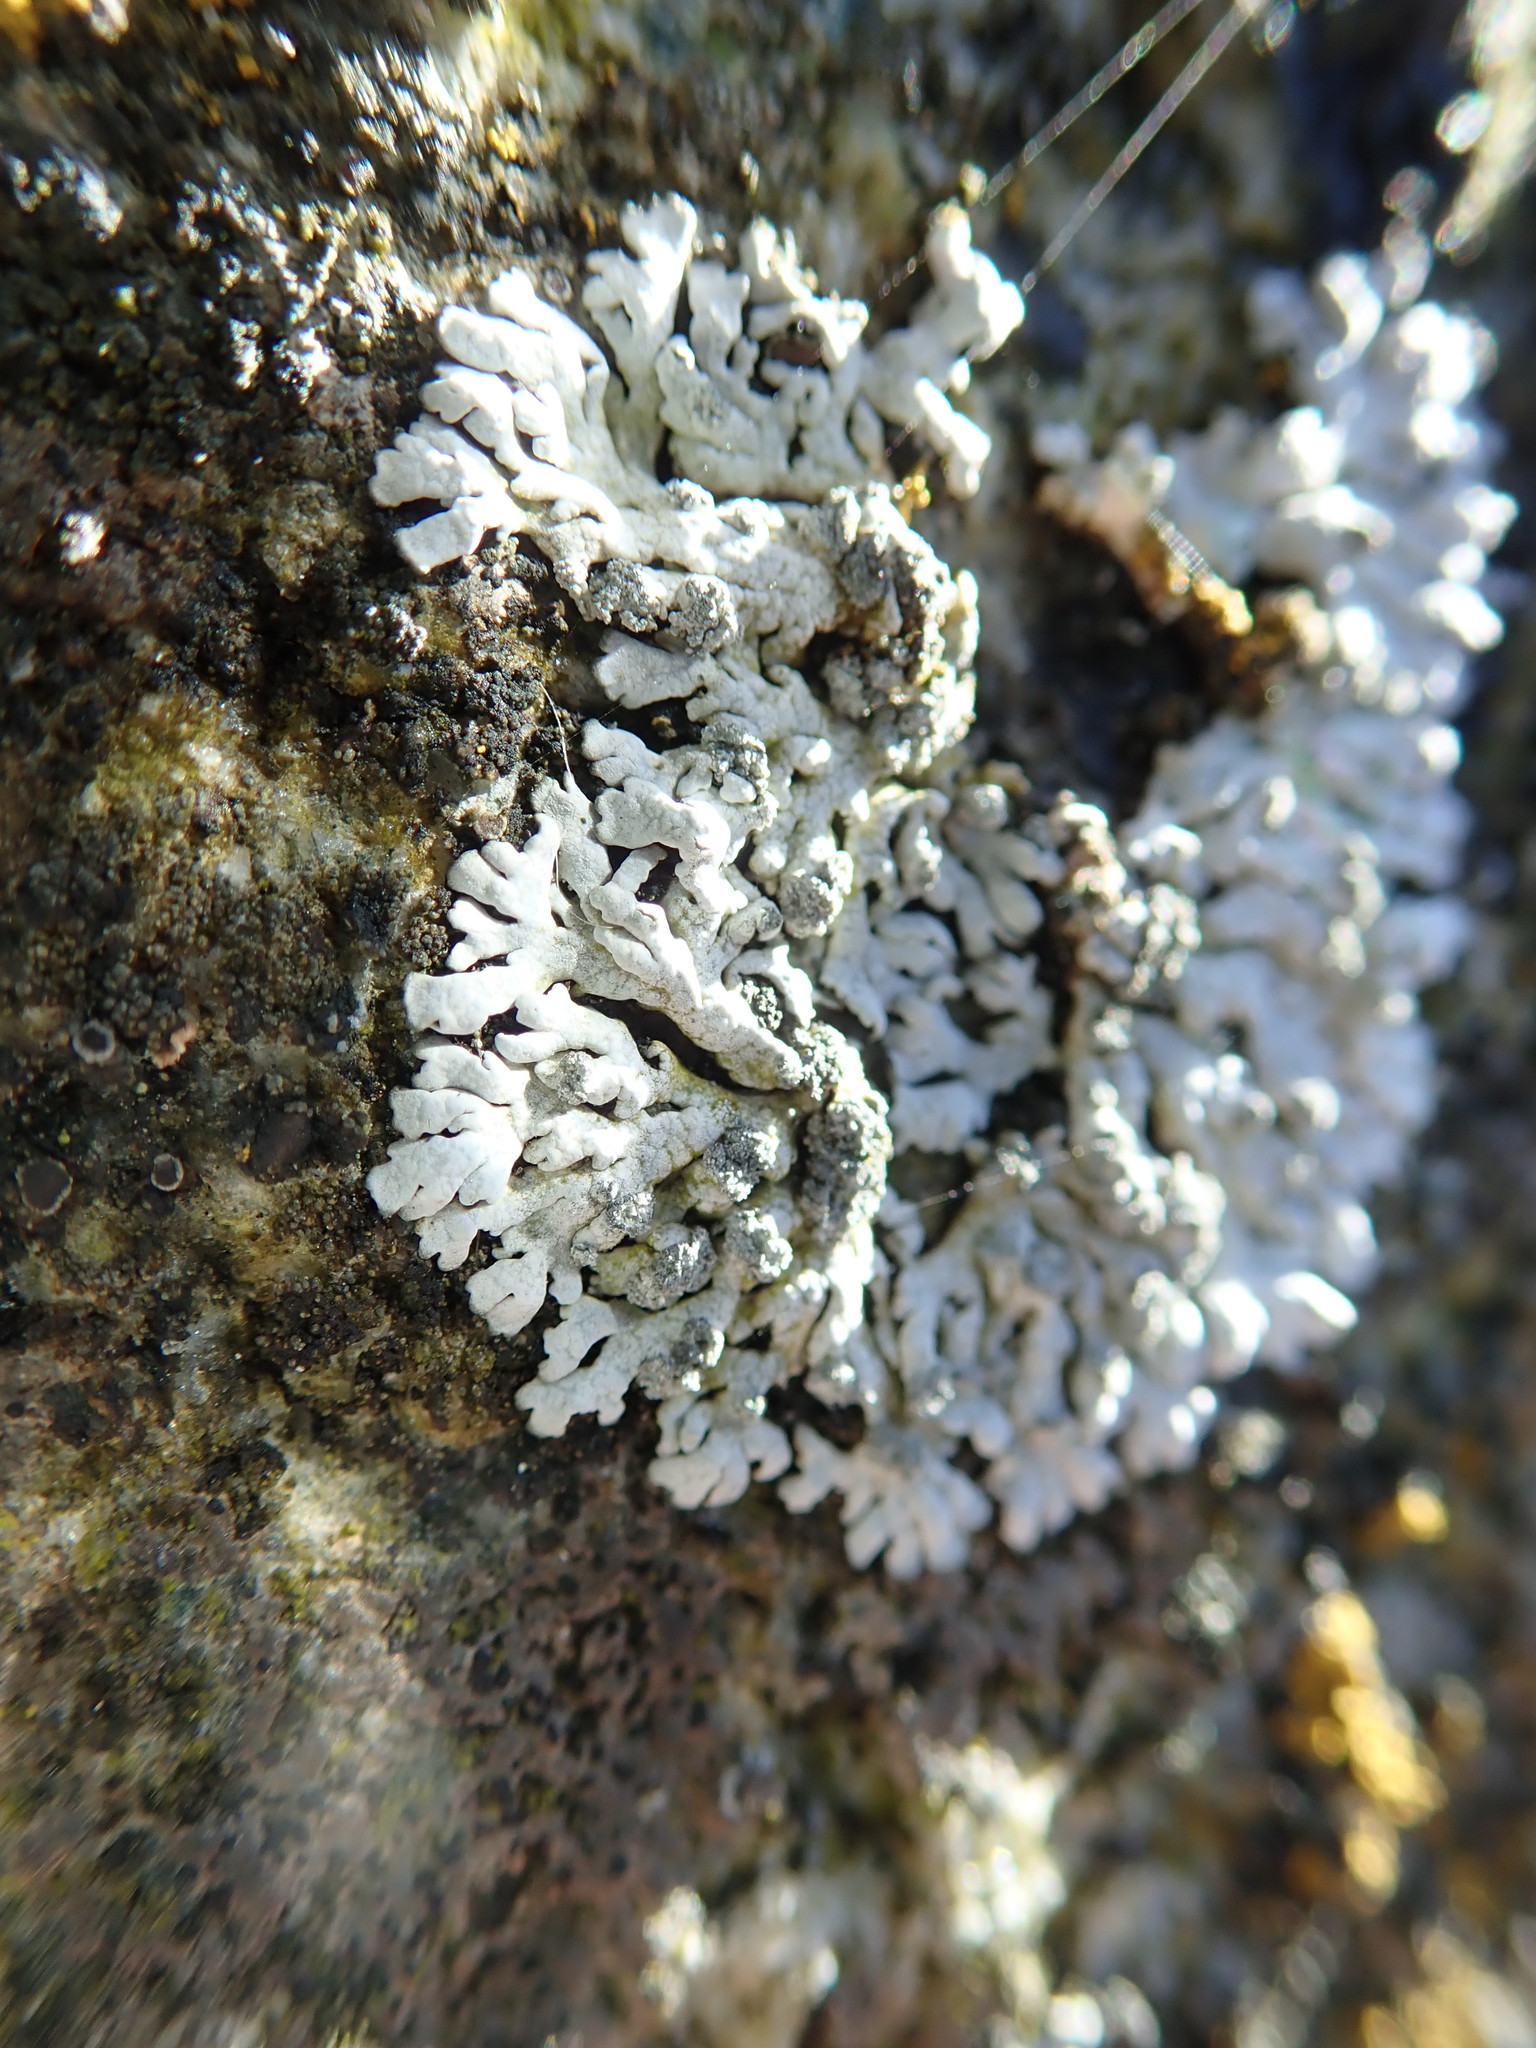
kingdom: Fungi
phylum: Ascomycota
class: Lecanoromycetes
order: Caliciales
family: Physciaceae
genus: Physcia
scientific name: Physcia caesia
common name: Blue-gray rosette lichen
